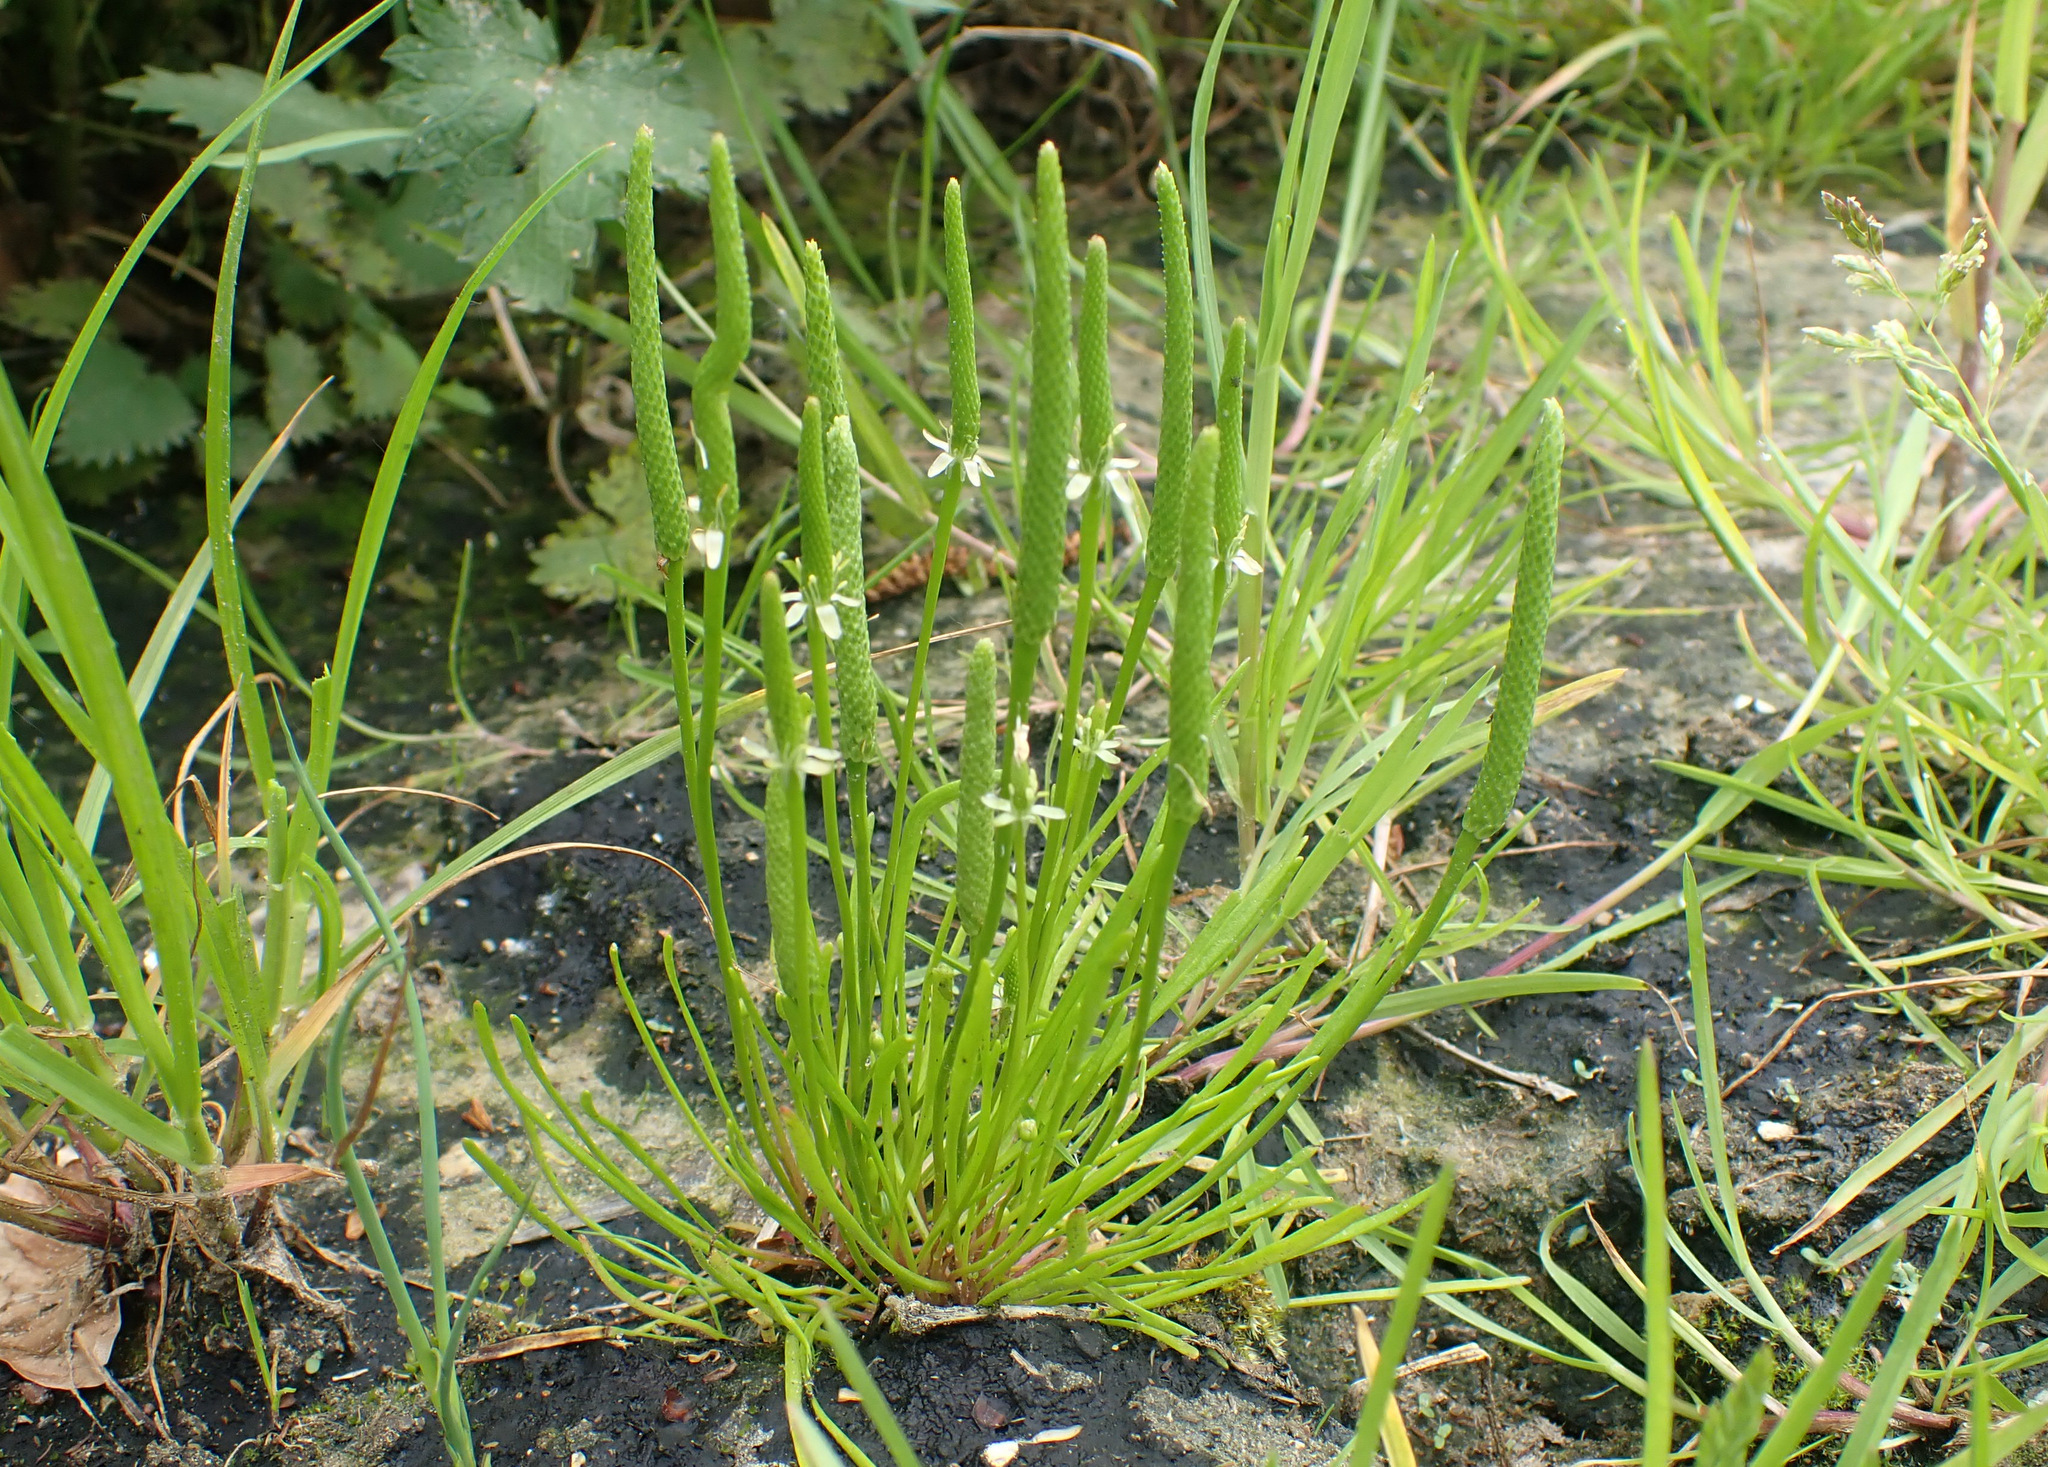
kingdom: Plantae
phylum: Tracheophyta
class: Magnoliopsida
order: Ranunculales
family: Ranunculaceae
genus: Myosurus
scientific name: Myosurus minimus
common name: Mousetail
